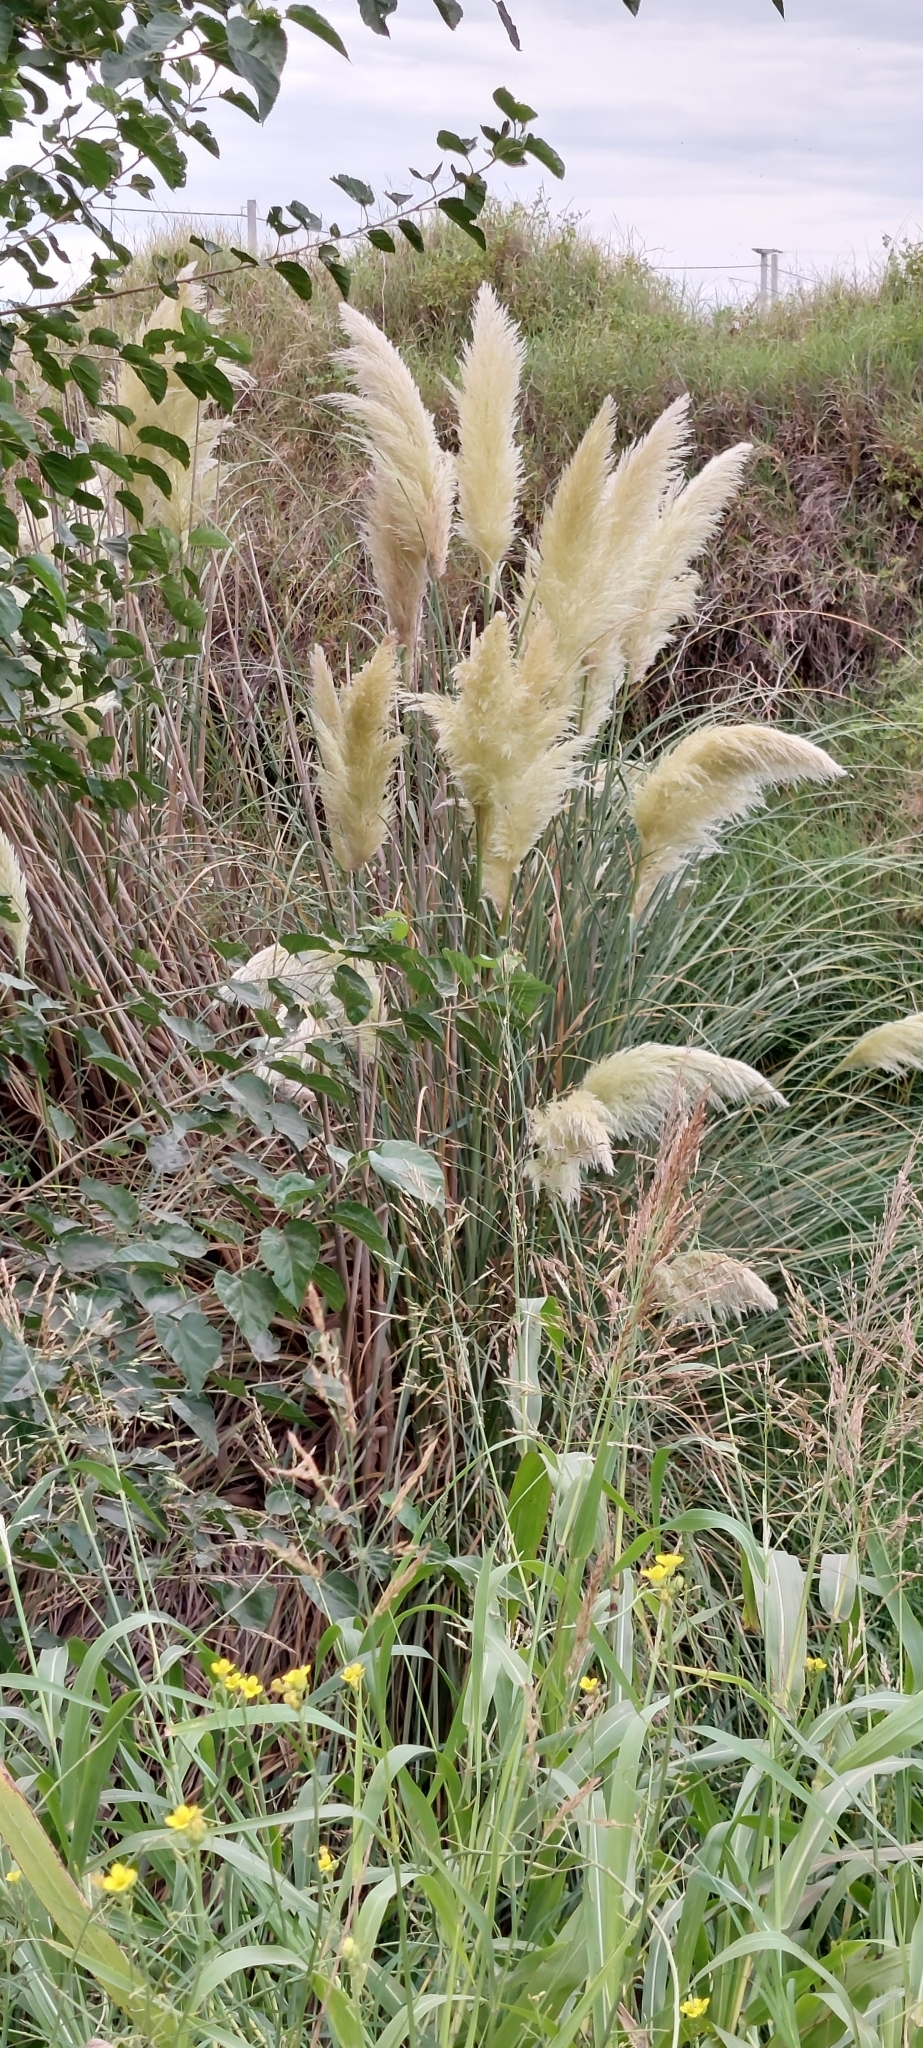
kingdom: Plantae
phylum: Tracheophyta
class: Liliopsida
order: Poales
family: Poaceae
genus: Cortaderia
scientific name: Cortaderia selloana
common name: Uruguayan pampas grass
